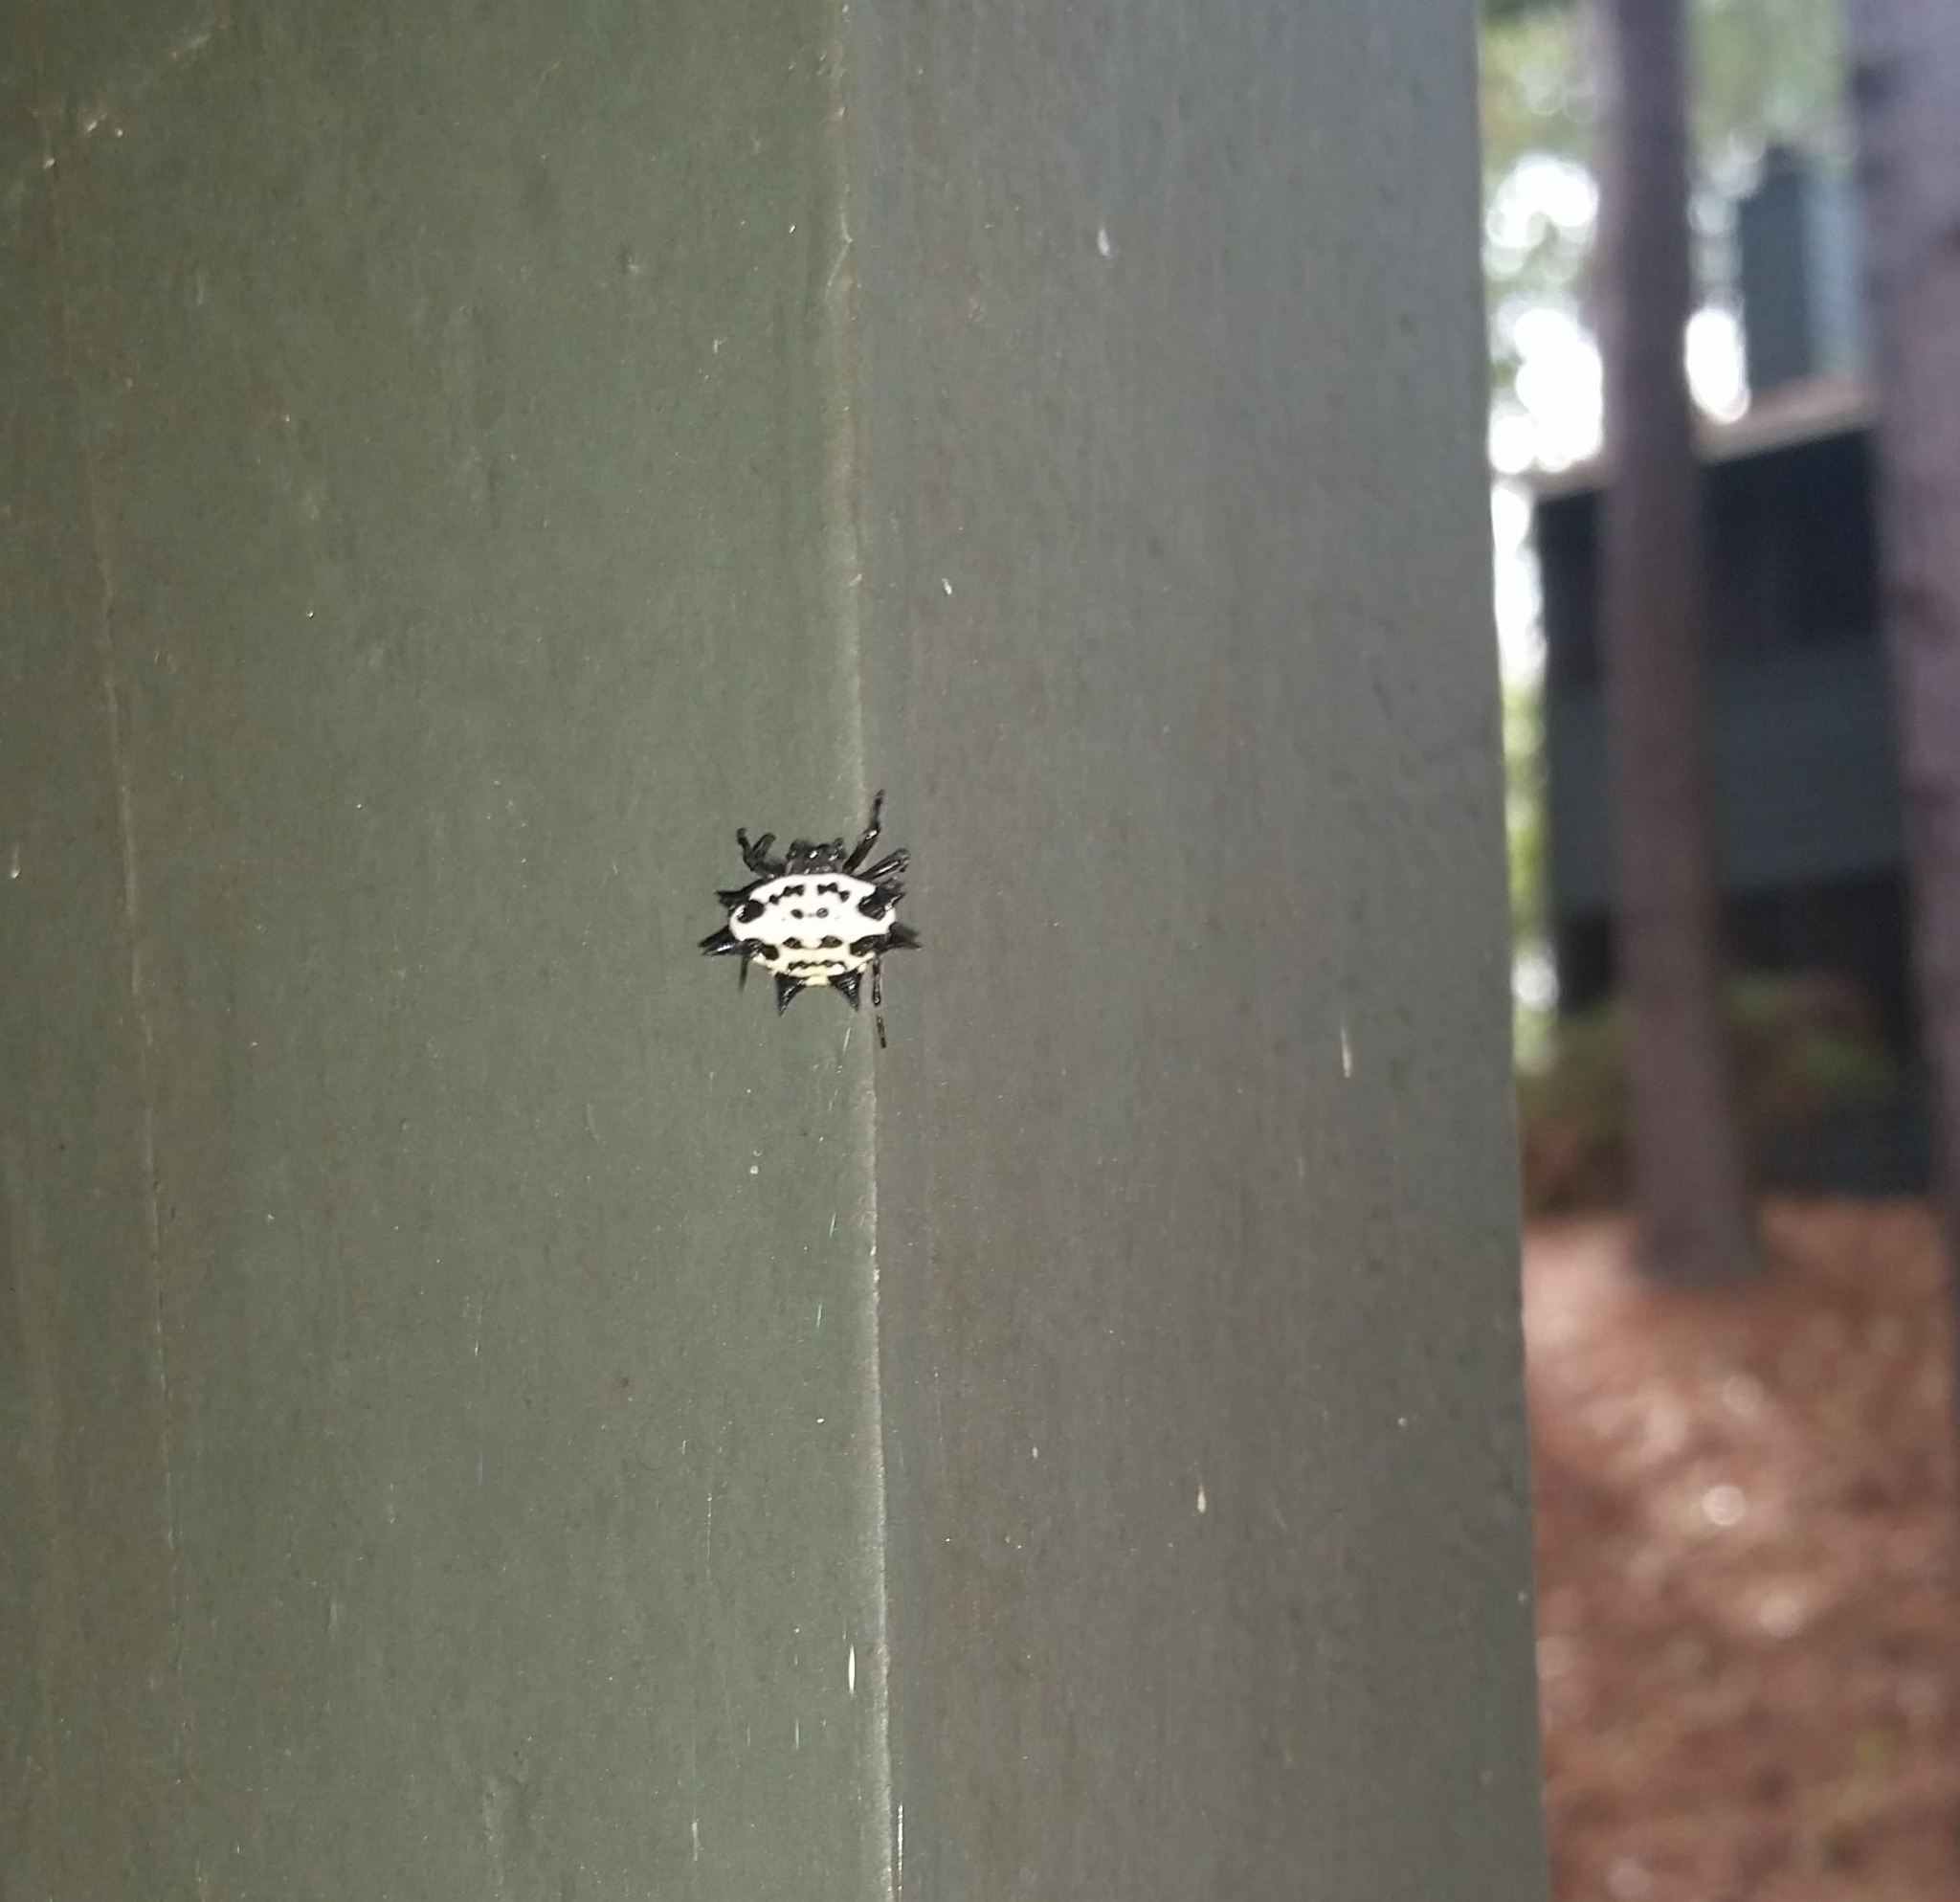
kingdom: Animalia
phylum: Arthropoda
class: Arachnida
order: Araneae
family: Araneidae
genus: Gasteracantha
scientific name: Gasteracantha cancriformis
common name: Orb weavers
